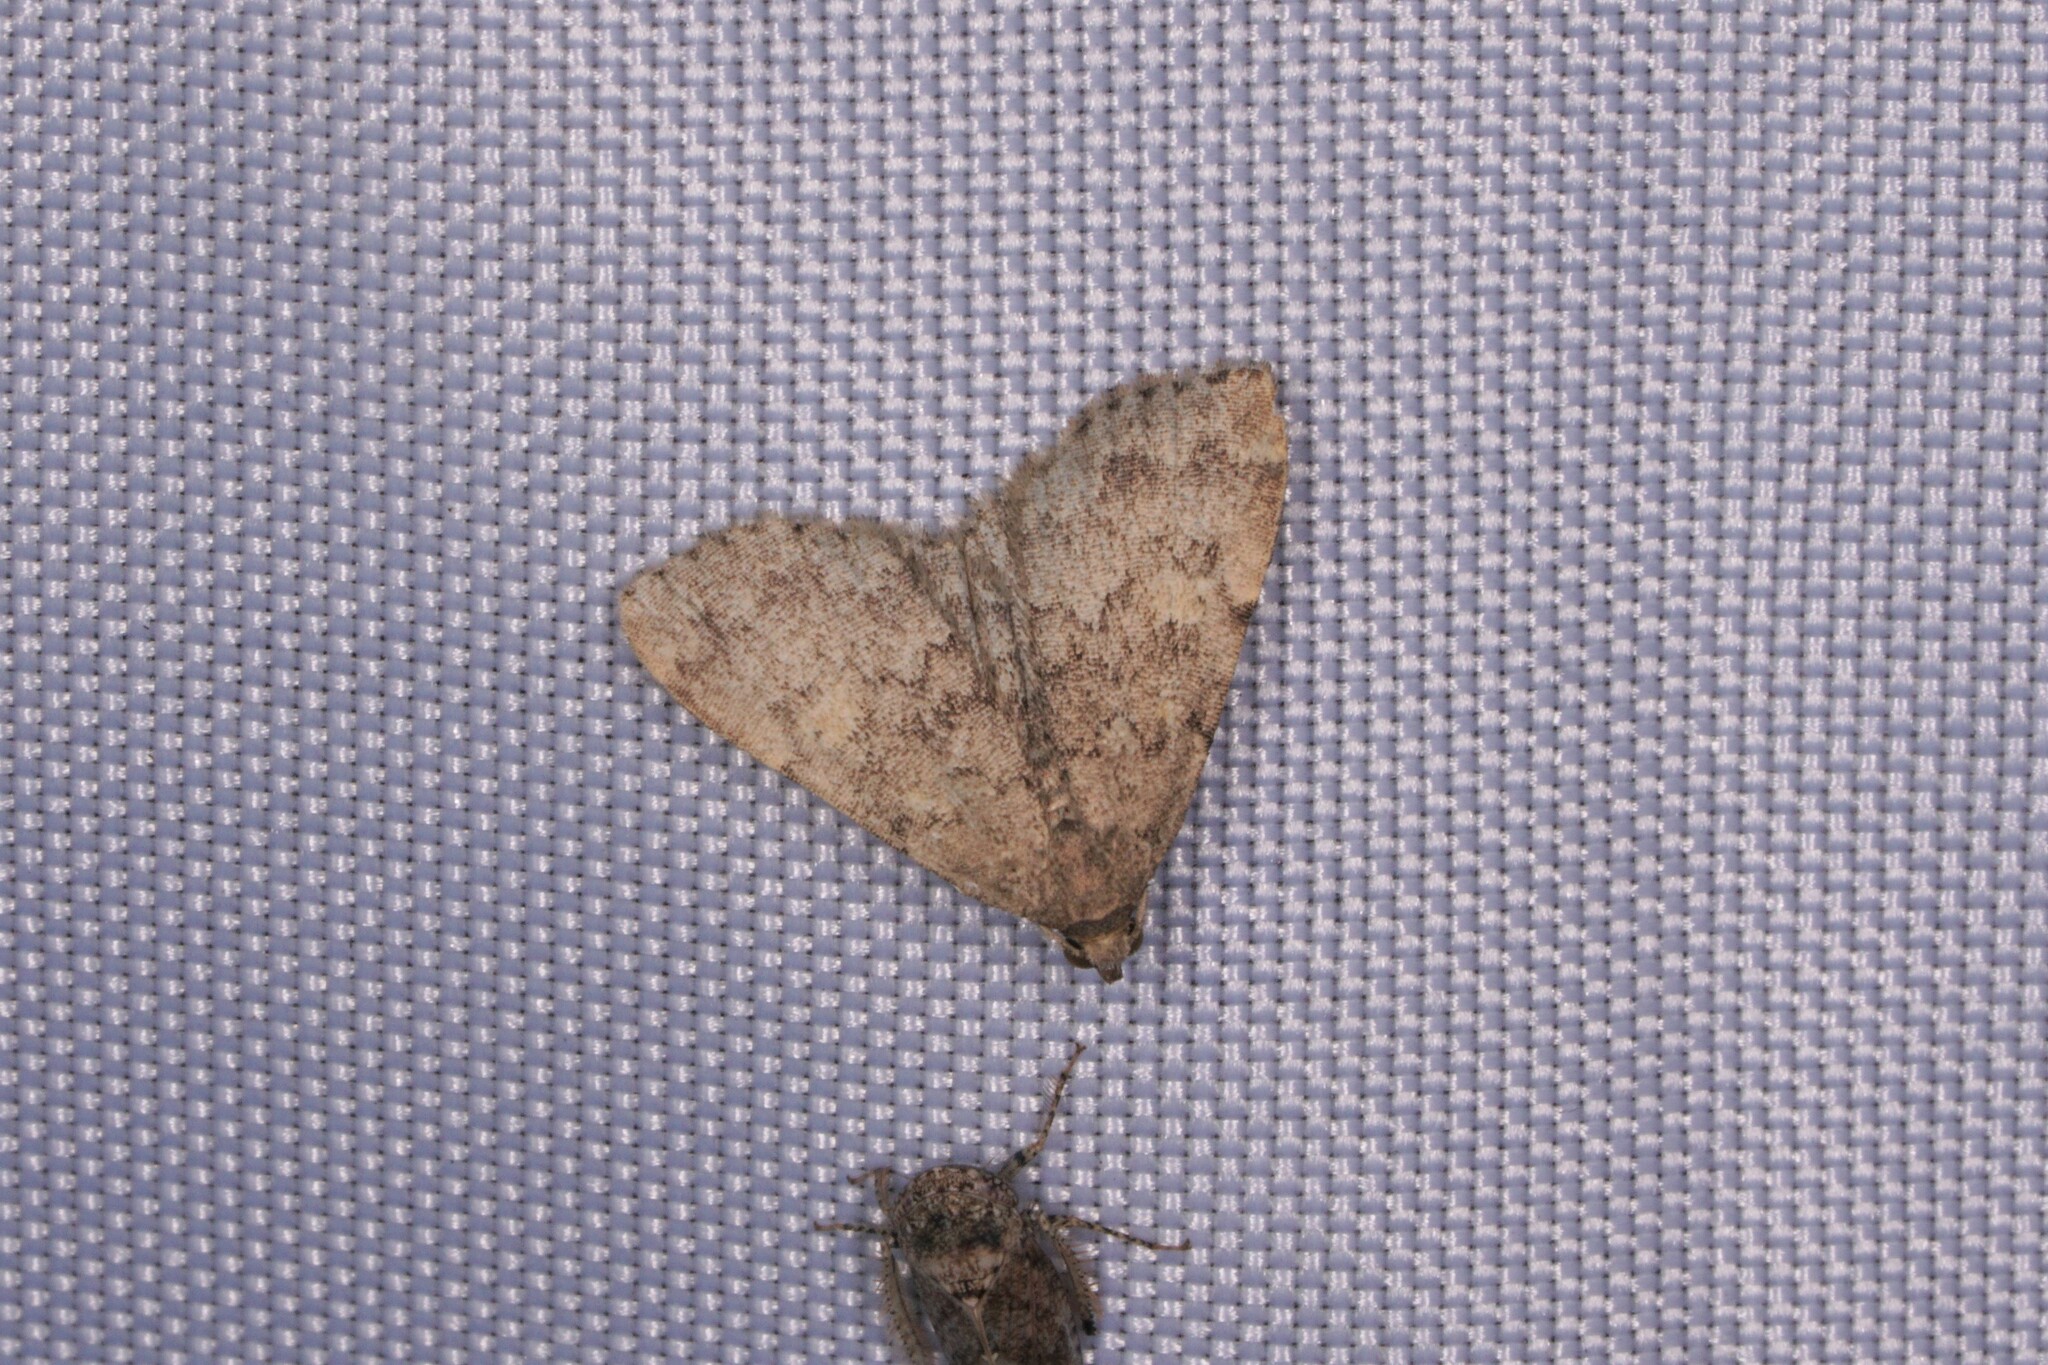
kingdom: Animalia
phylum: Arthropoda
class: Insecta
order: Lepidoptera
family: Erebidae
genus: Idia
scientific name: Idia aemula
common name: Common idia moth
